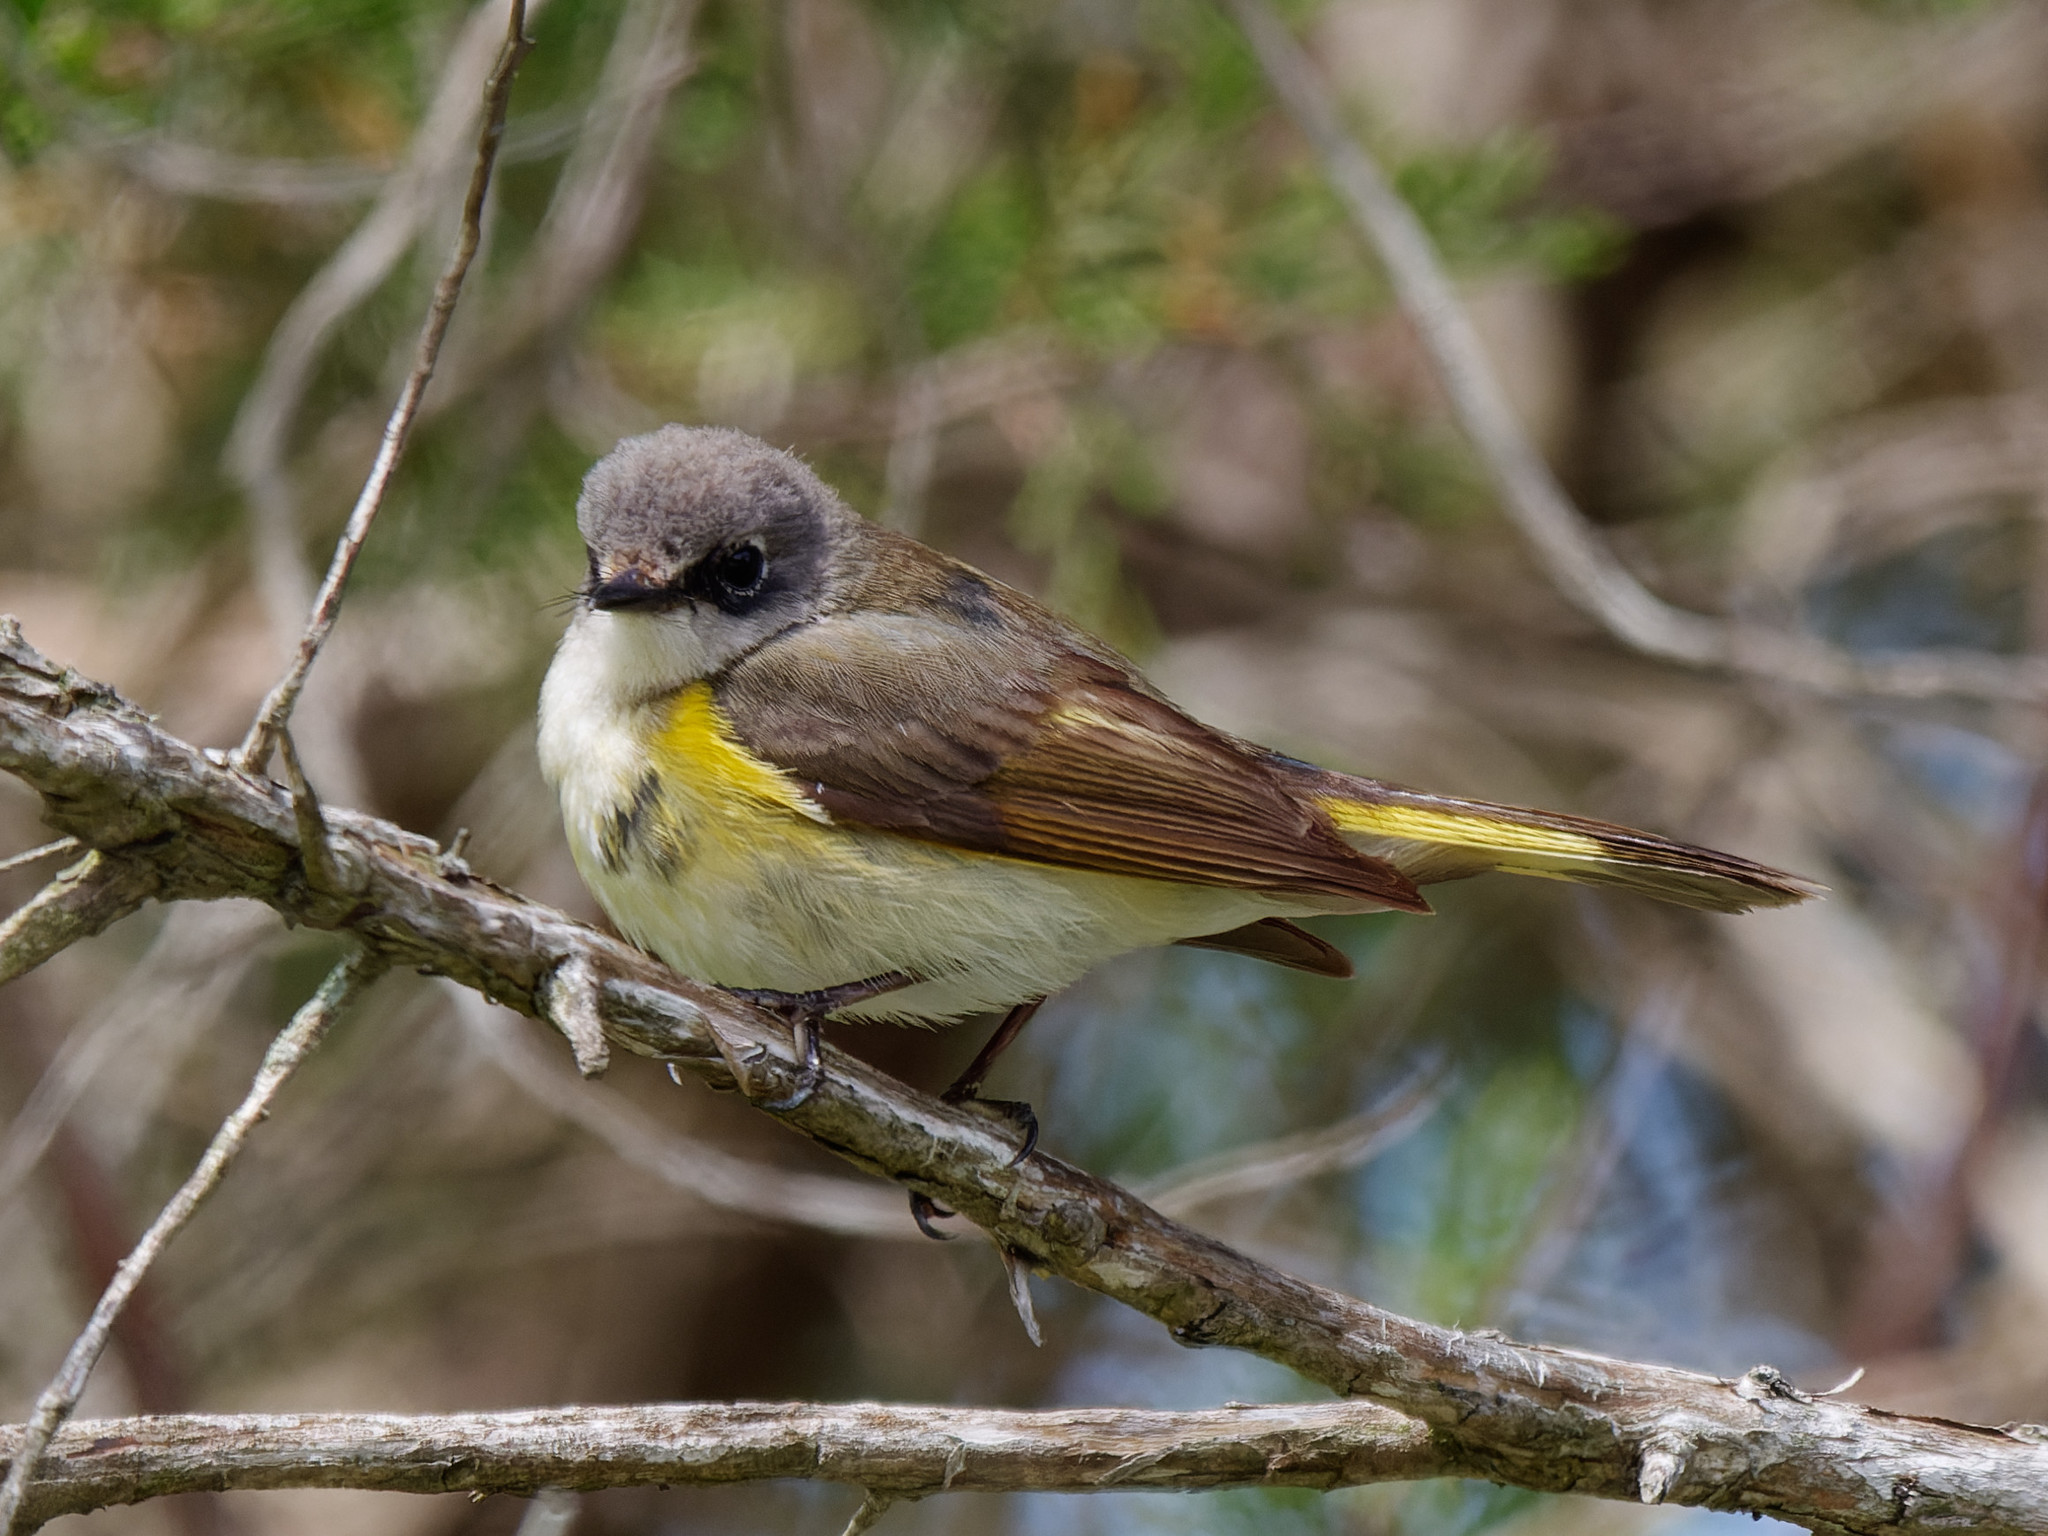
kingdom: Animalia
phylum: Chordata
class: Aves
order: Passeriformes
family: Parulidae
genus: Setophaga
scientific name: Setophaga ruticilla
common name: American redstart
